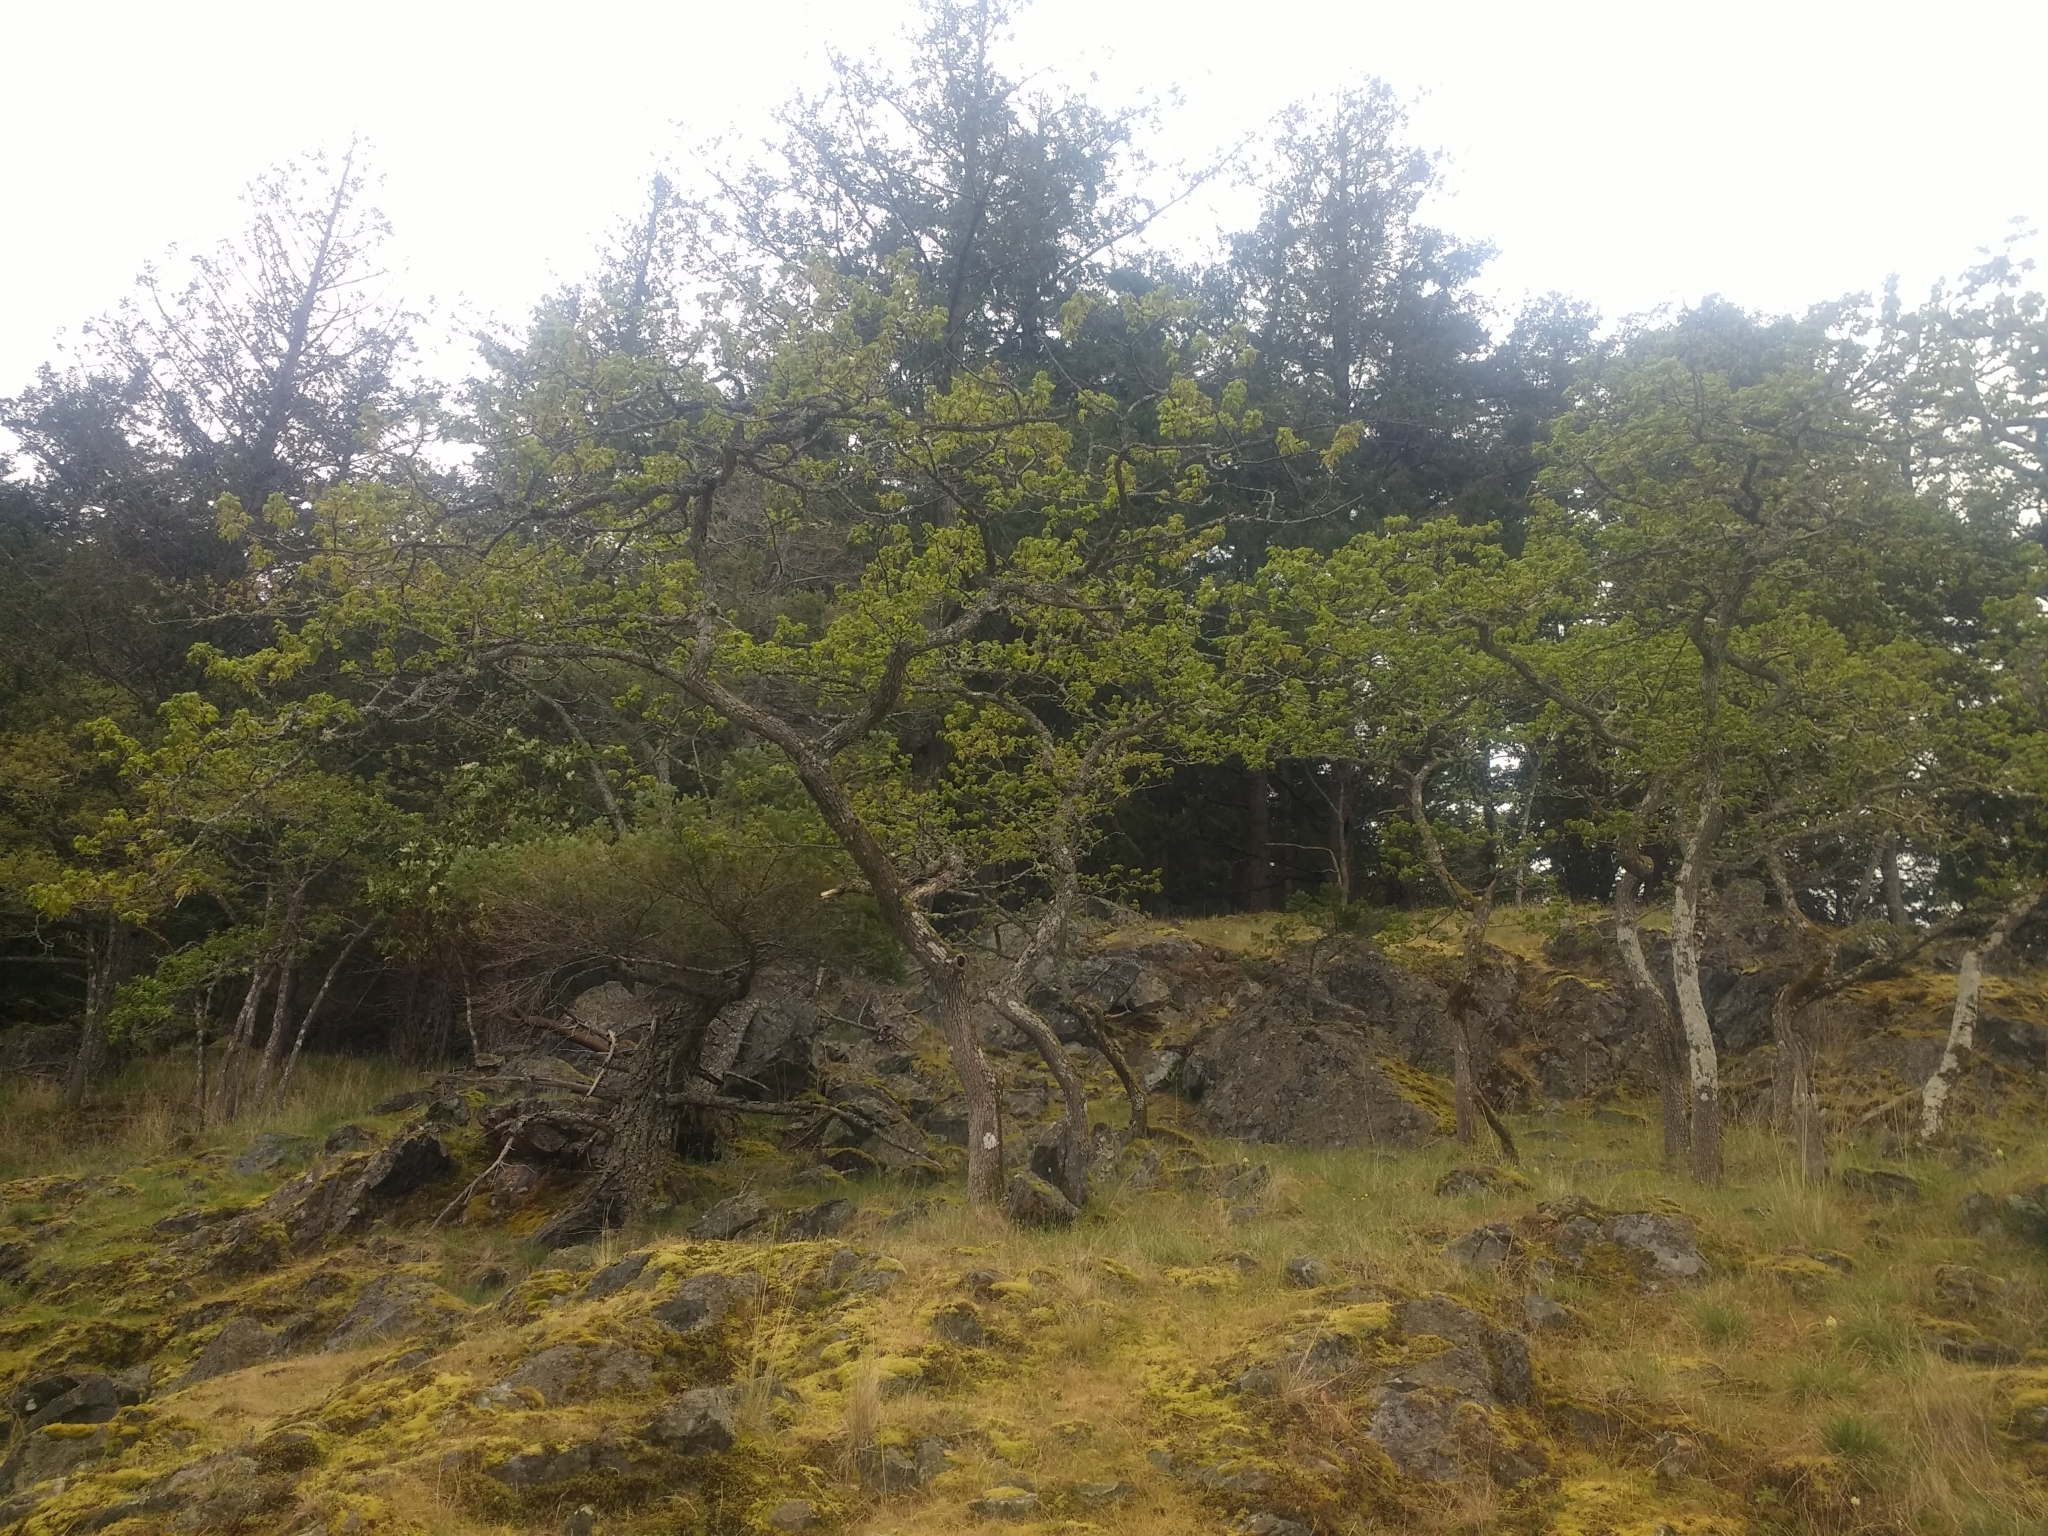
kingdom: Plantae
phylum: Tracheophyta
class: Magnoliopsida
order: Fagales
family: Fagaceae
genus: Quercus
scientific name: Quercus garryana
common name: Garry oak
